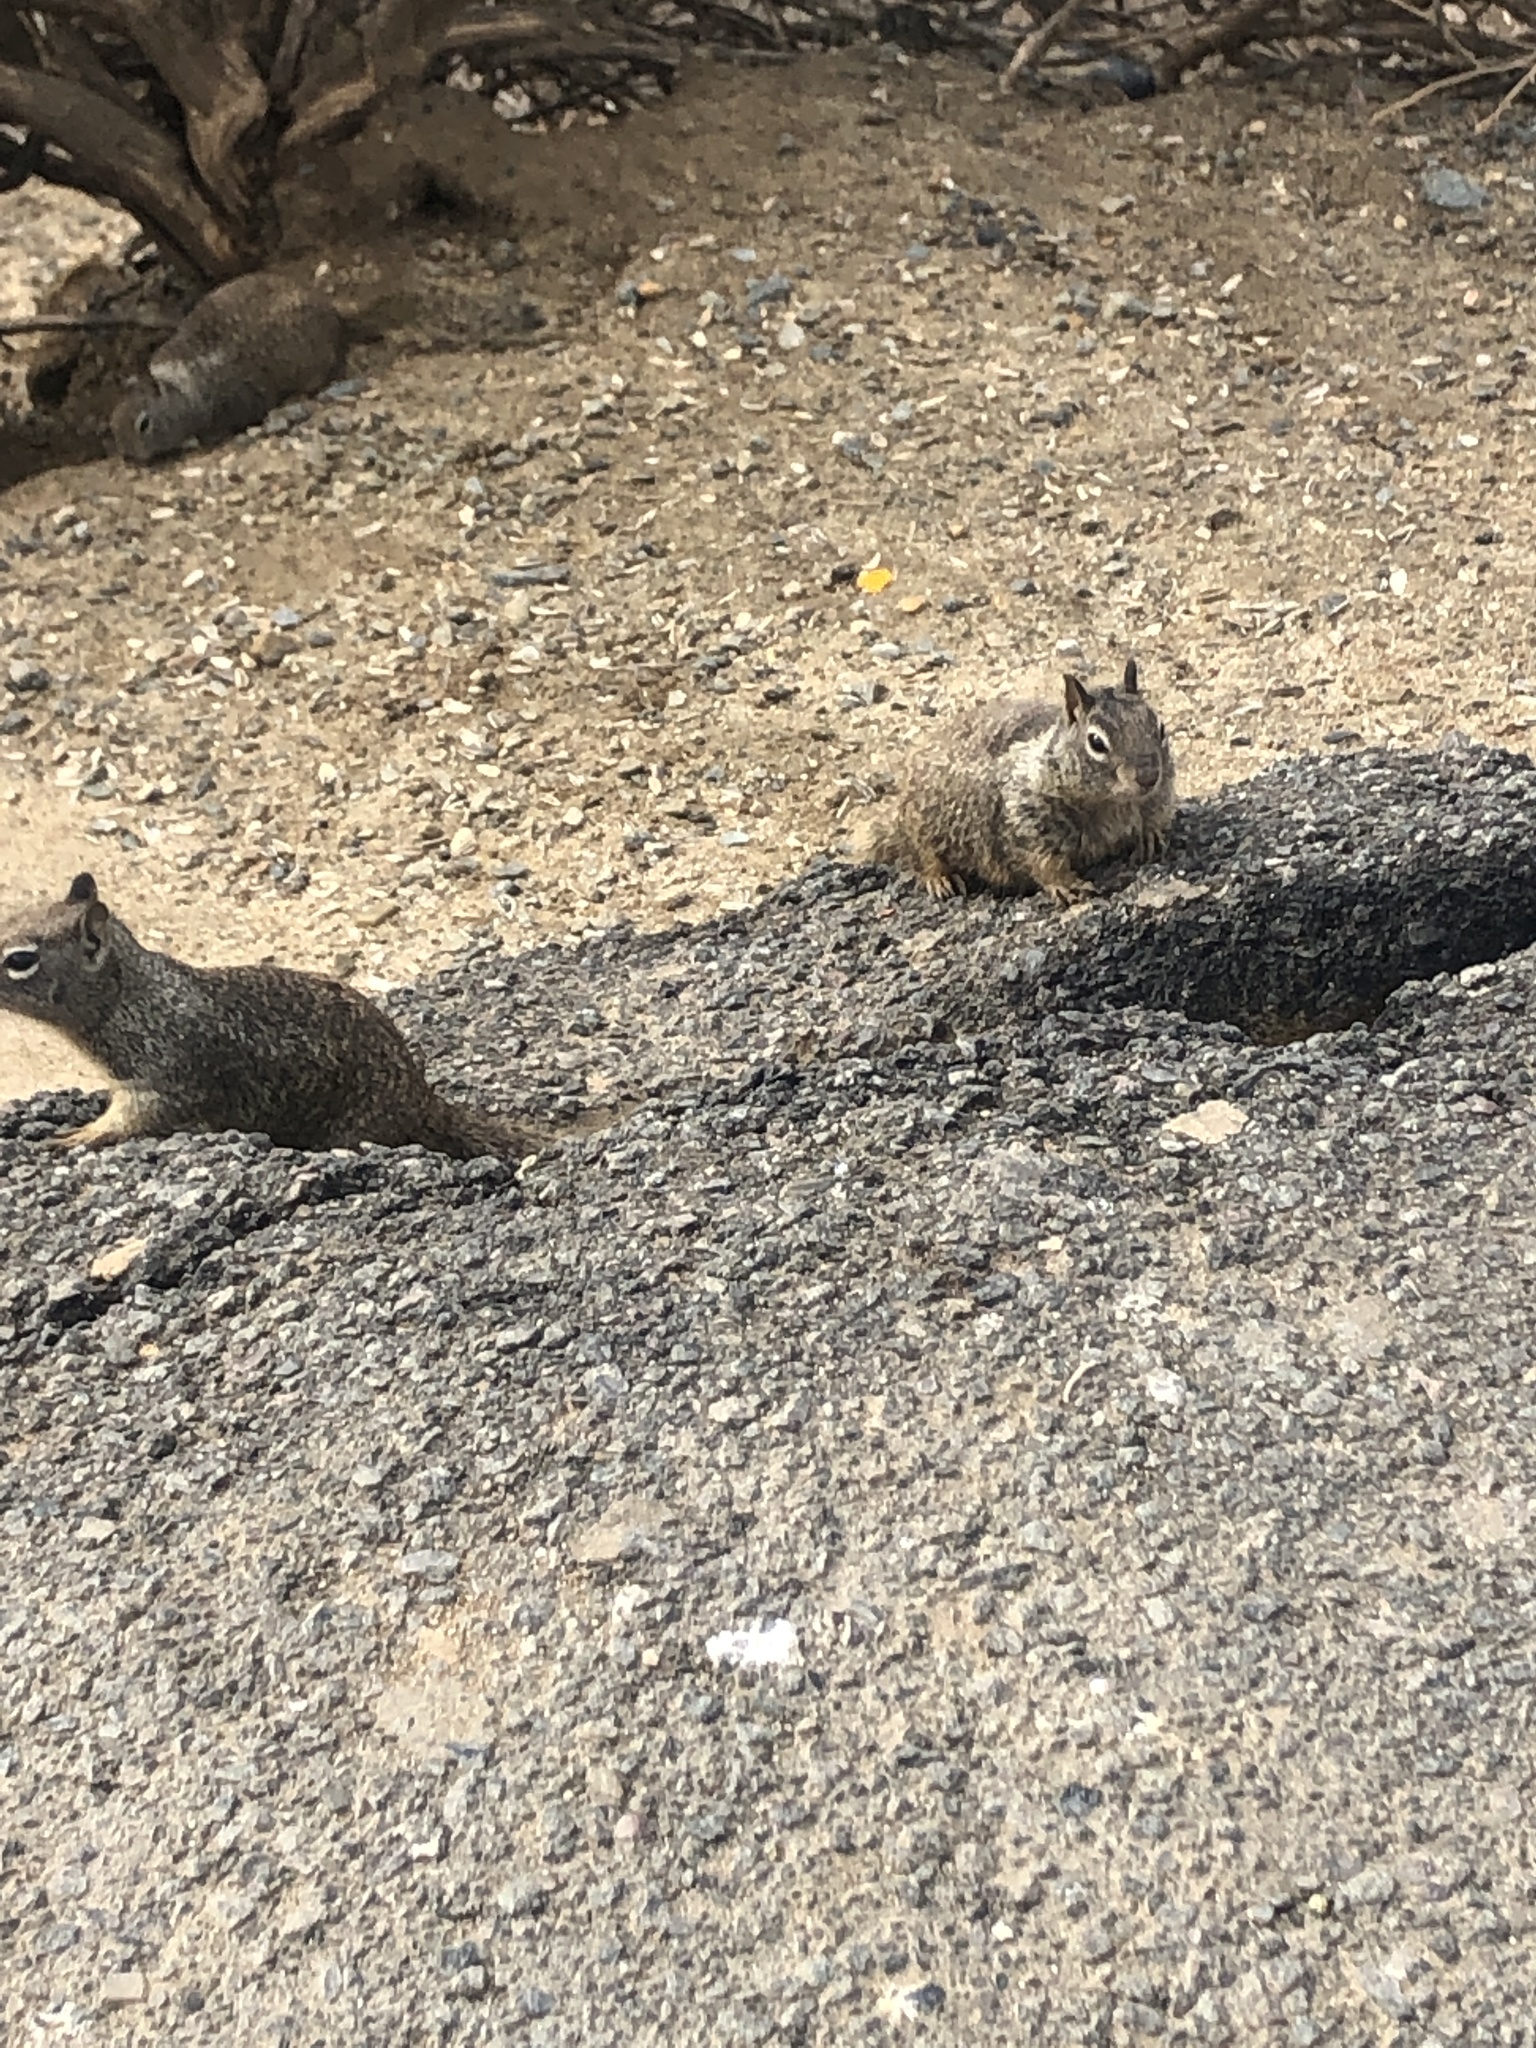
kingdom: Animalia
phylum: Chordata
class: Mammalia
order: Rodentia
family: Sciuridae
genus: Otospermophilus
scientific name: Otospermophilus beecheyi
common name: California ground squirrel
